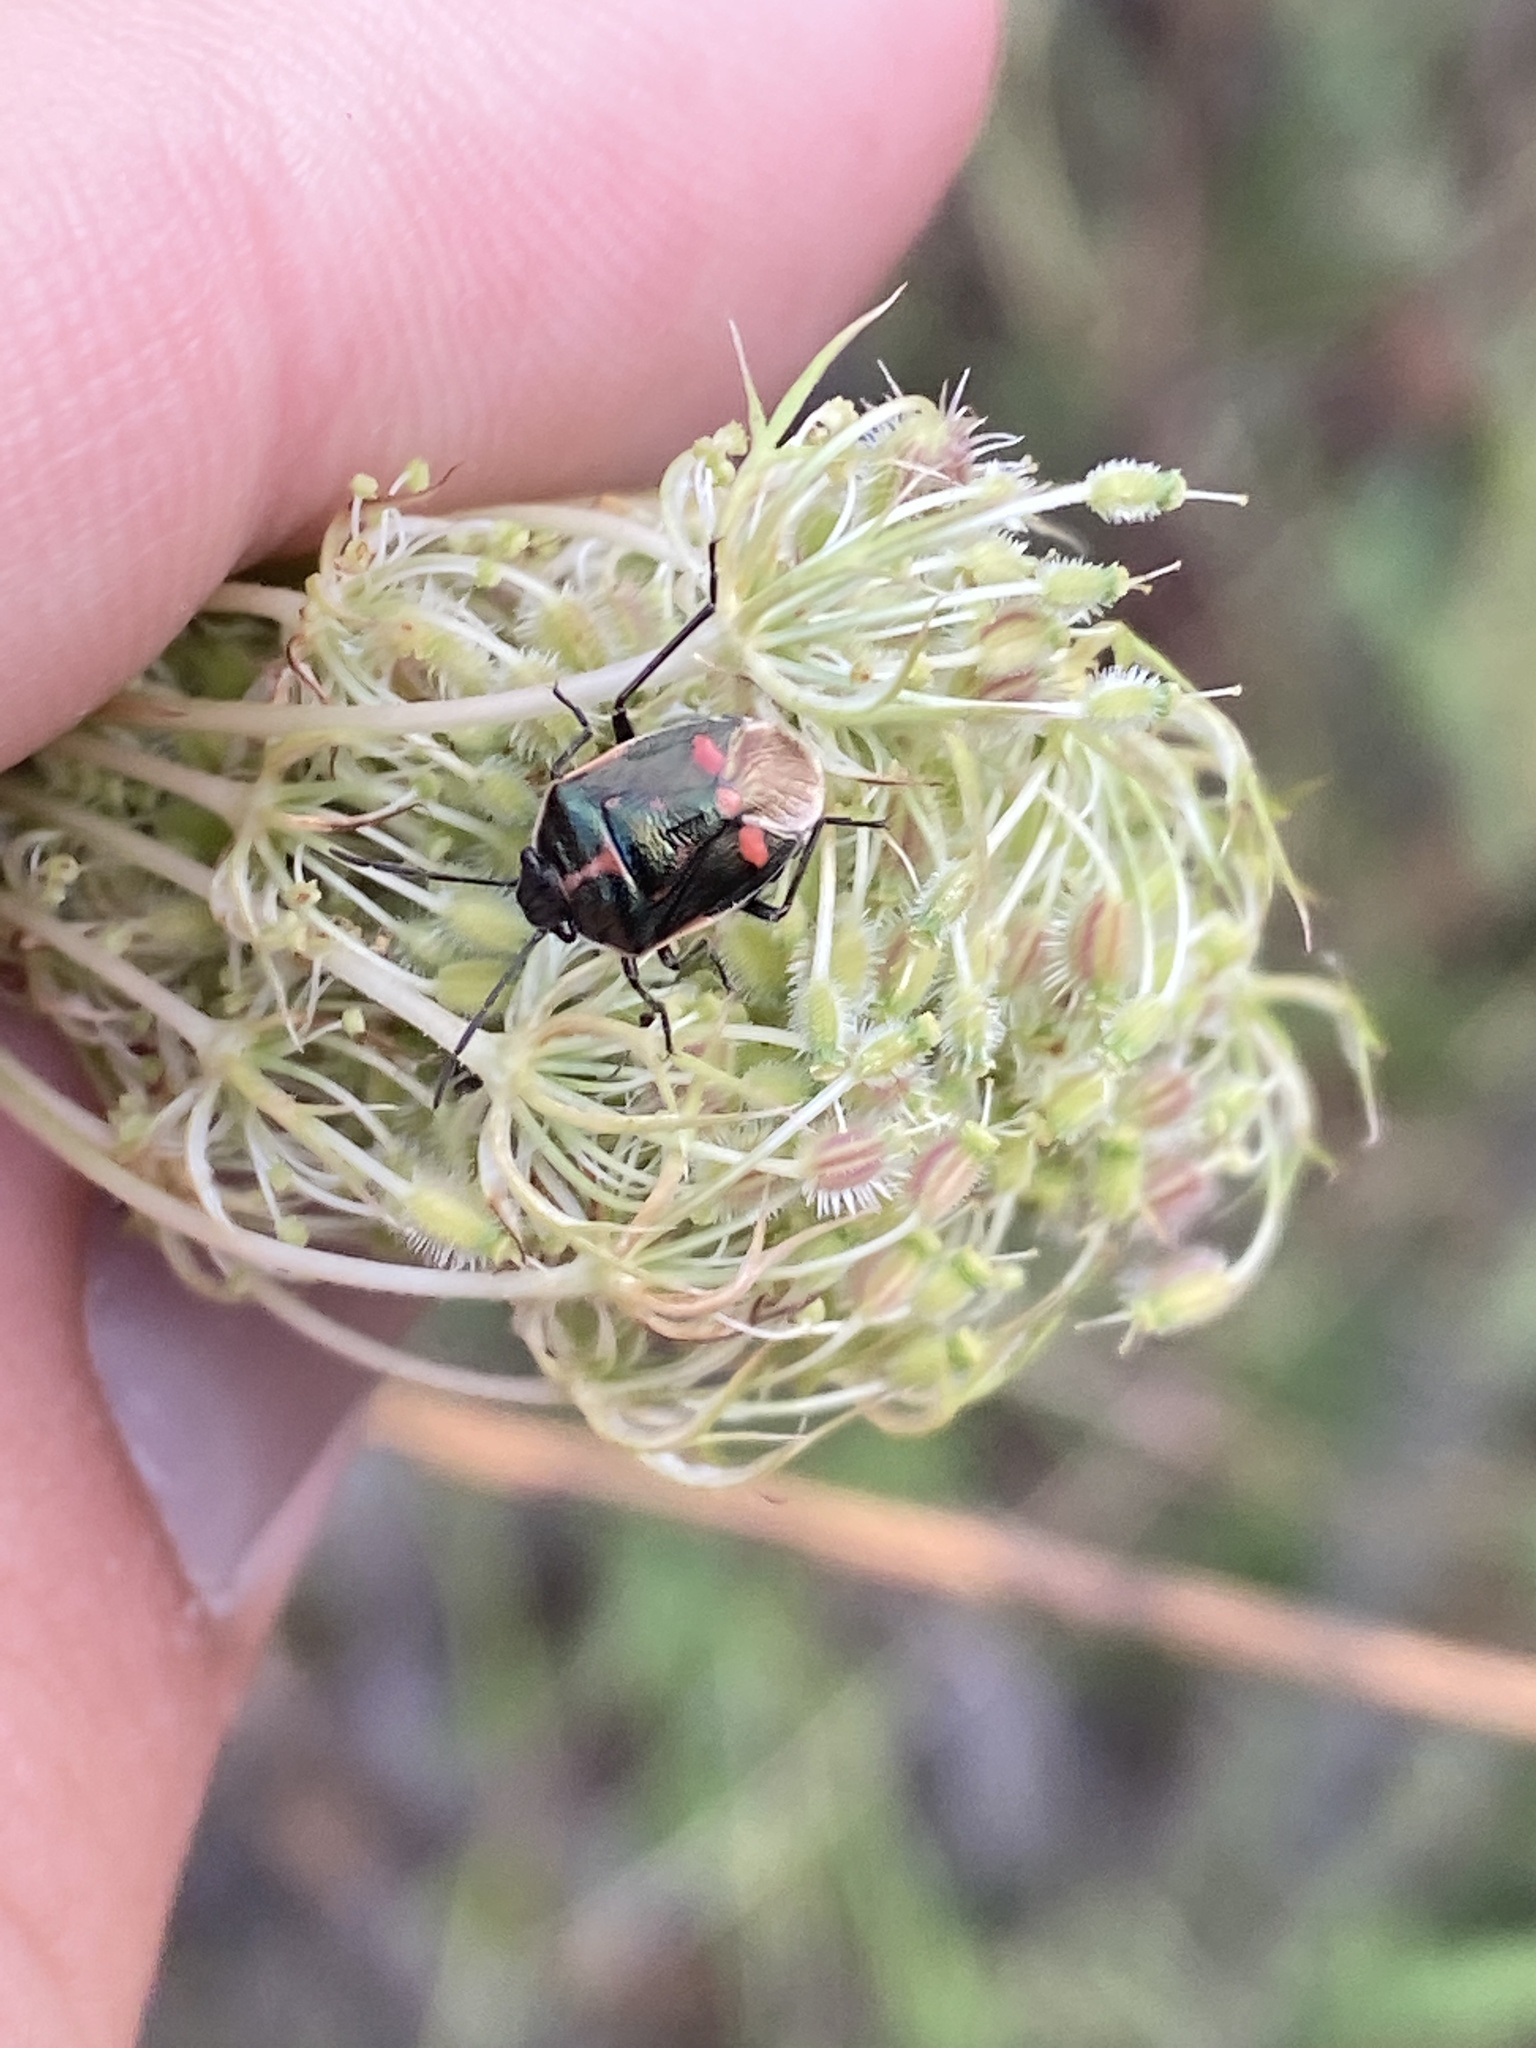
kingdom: Animalia
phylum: Arthropoda
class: Insecta
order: Hemiptera
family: Pentatomidae
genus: Eurydema
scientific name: Eurydema oleracea
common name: Cabbage bug
